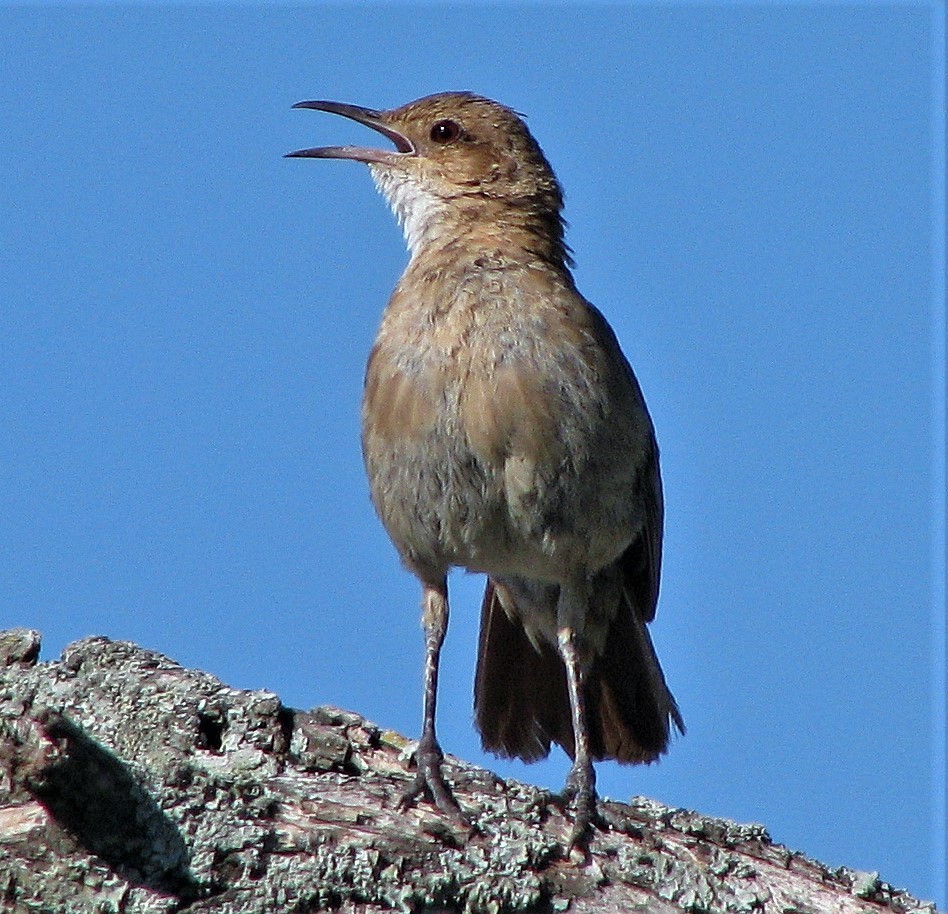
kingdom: Animalia
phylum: Chordata
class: Aves
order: Passeriformes
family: Furnariidae
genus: Furnarius
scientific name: Furnarius rufus
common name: Rufous hornero
